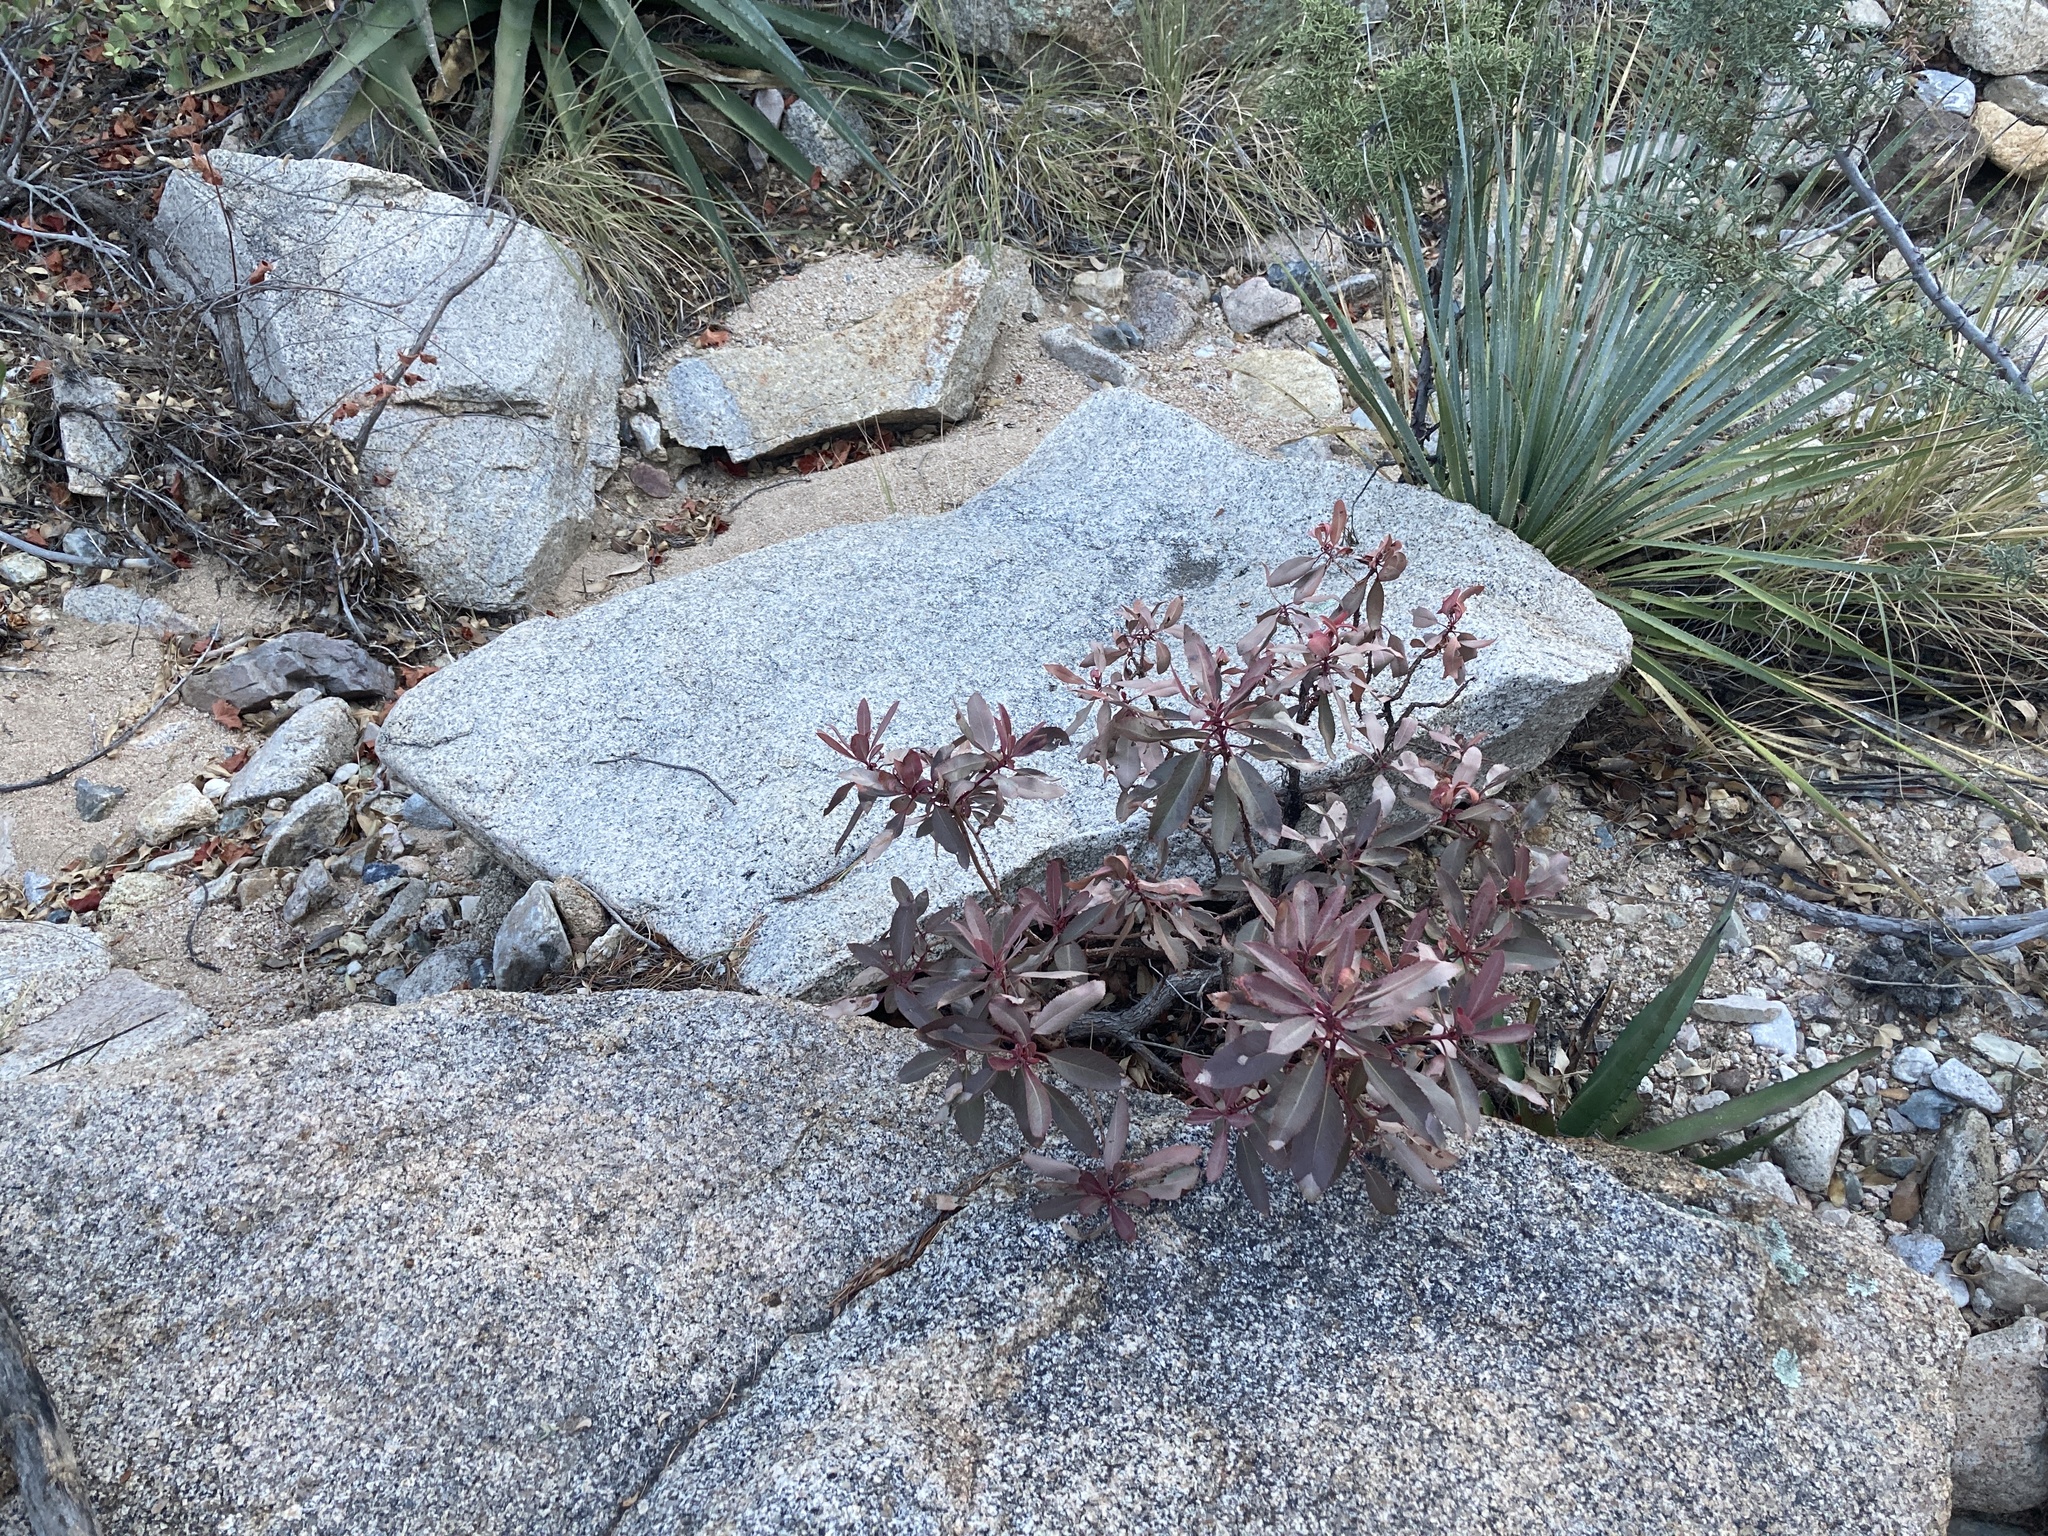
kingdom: Plantae
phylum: Tracheophyta
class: Magnoliopsida
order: Ericales
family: Ericaceae
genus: Arbutus
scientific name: Arbutus arizonica
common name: Arizona madrone
